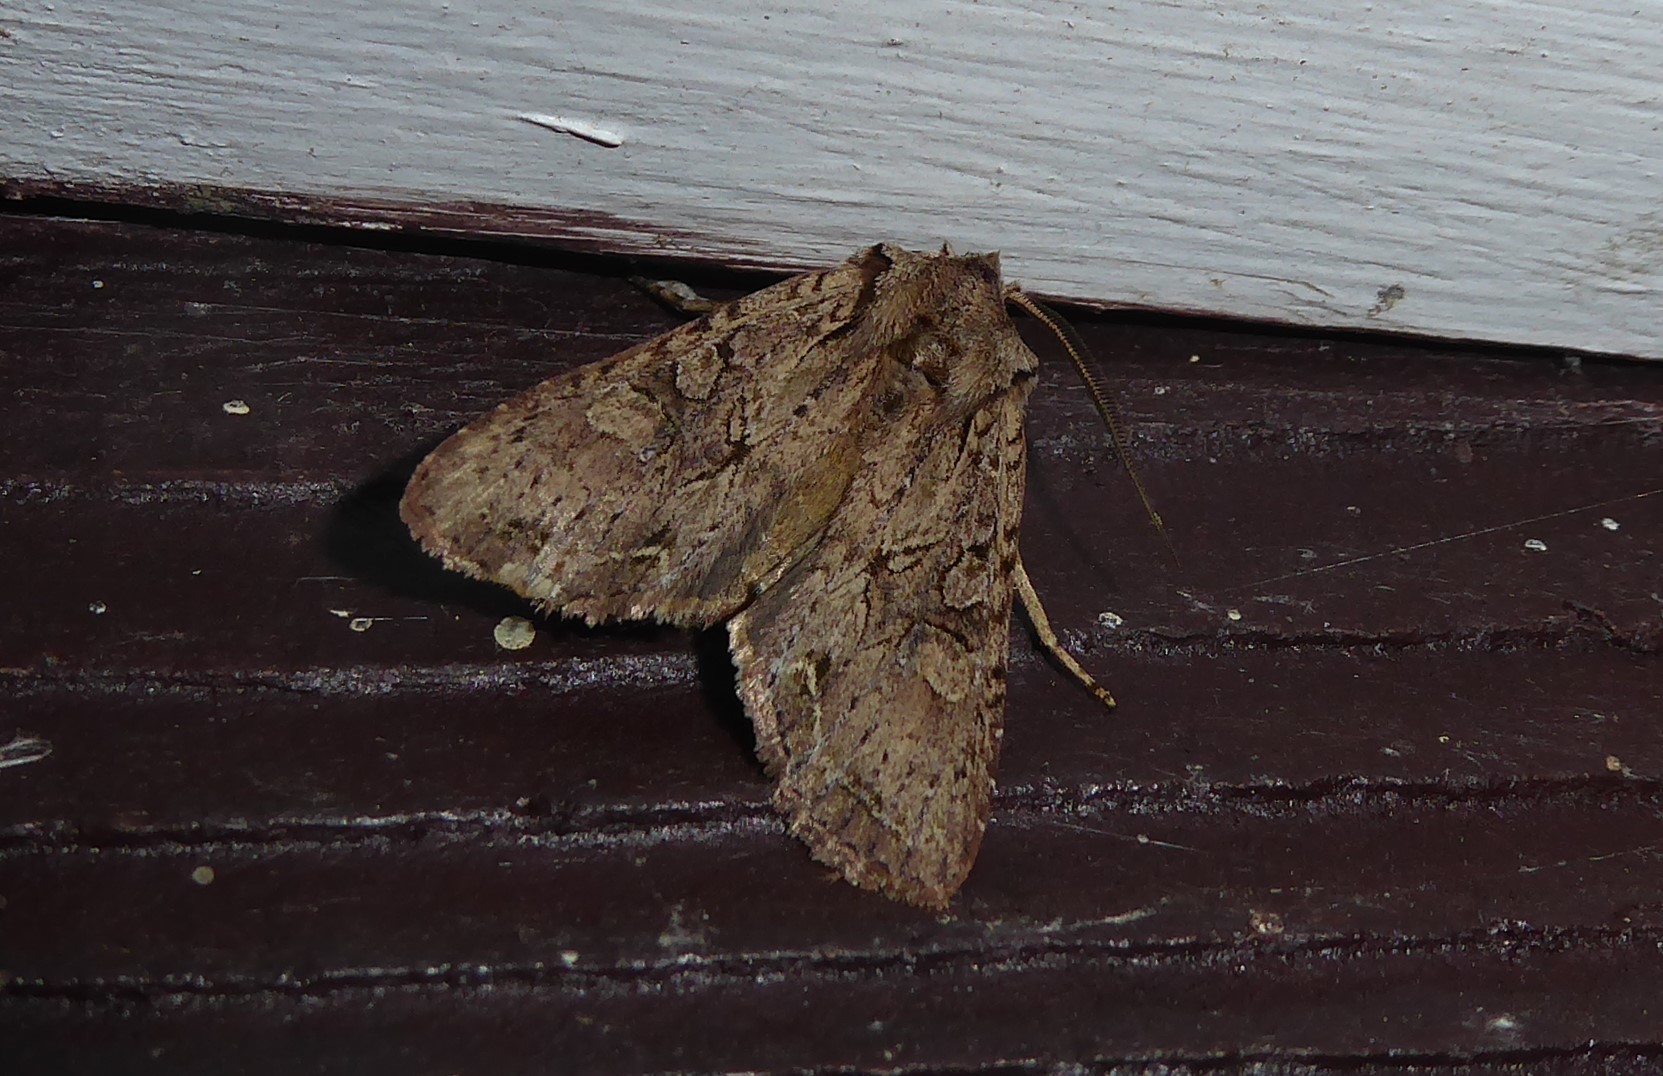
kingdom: Animalia
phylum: Arthropoda
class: Insecta
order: Lepidoptera
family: Noctuidae
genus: Ichneutica
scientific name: Ichneutica
